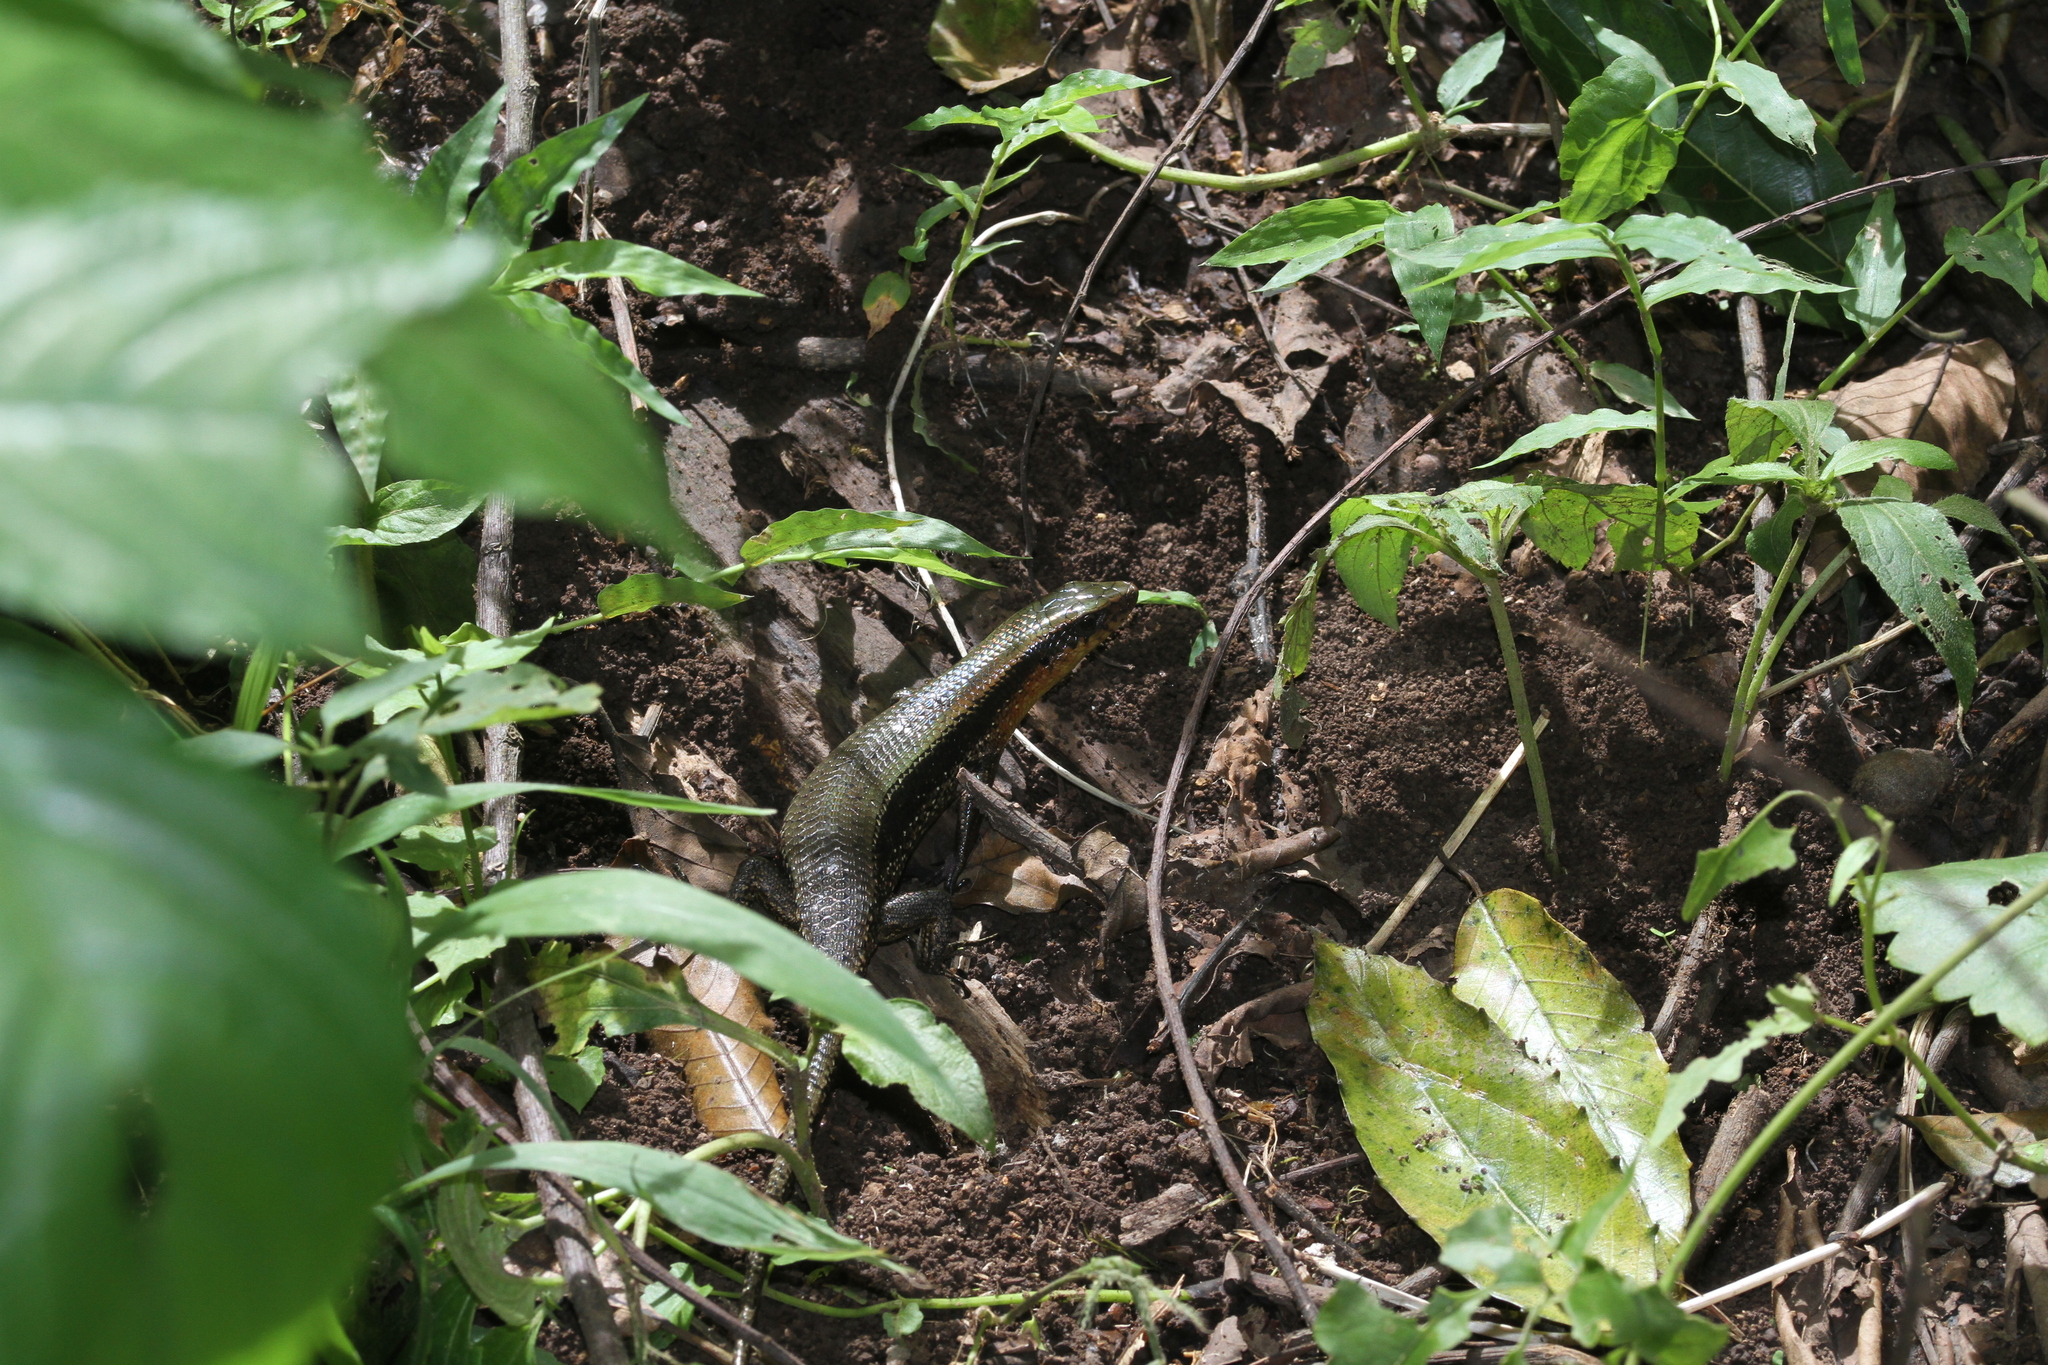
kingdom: Animalia
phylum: Chordata
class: Squamata
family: Scincidae
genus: Eutropis
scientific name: Eutropis multifasciata
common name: Common mabuya
